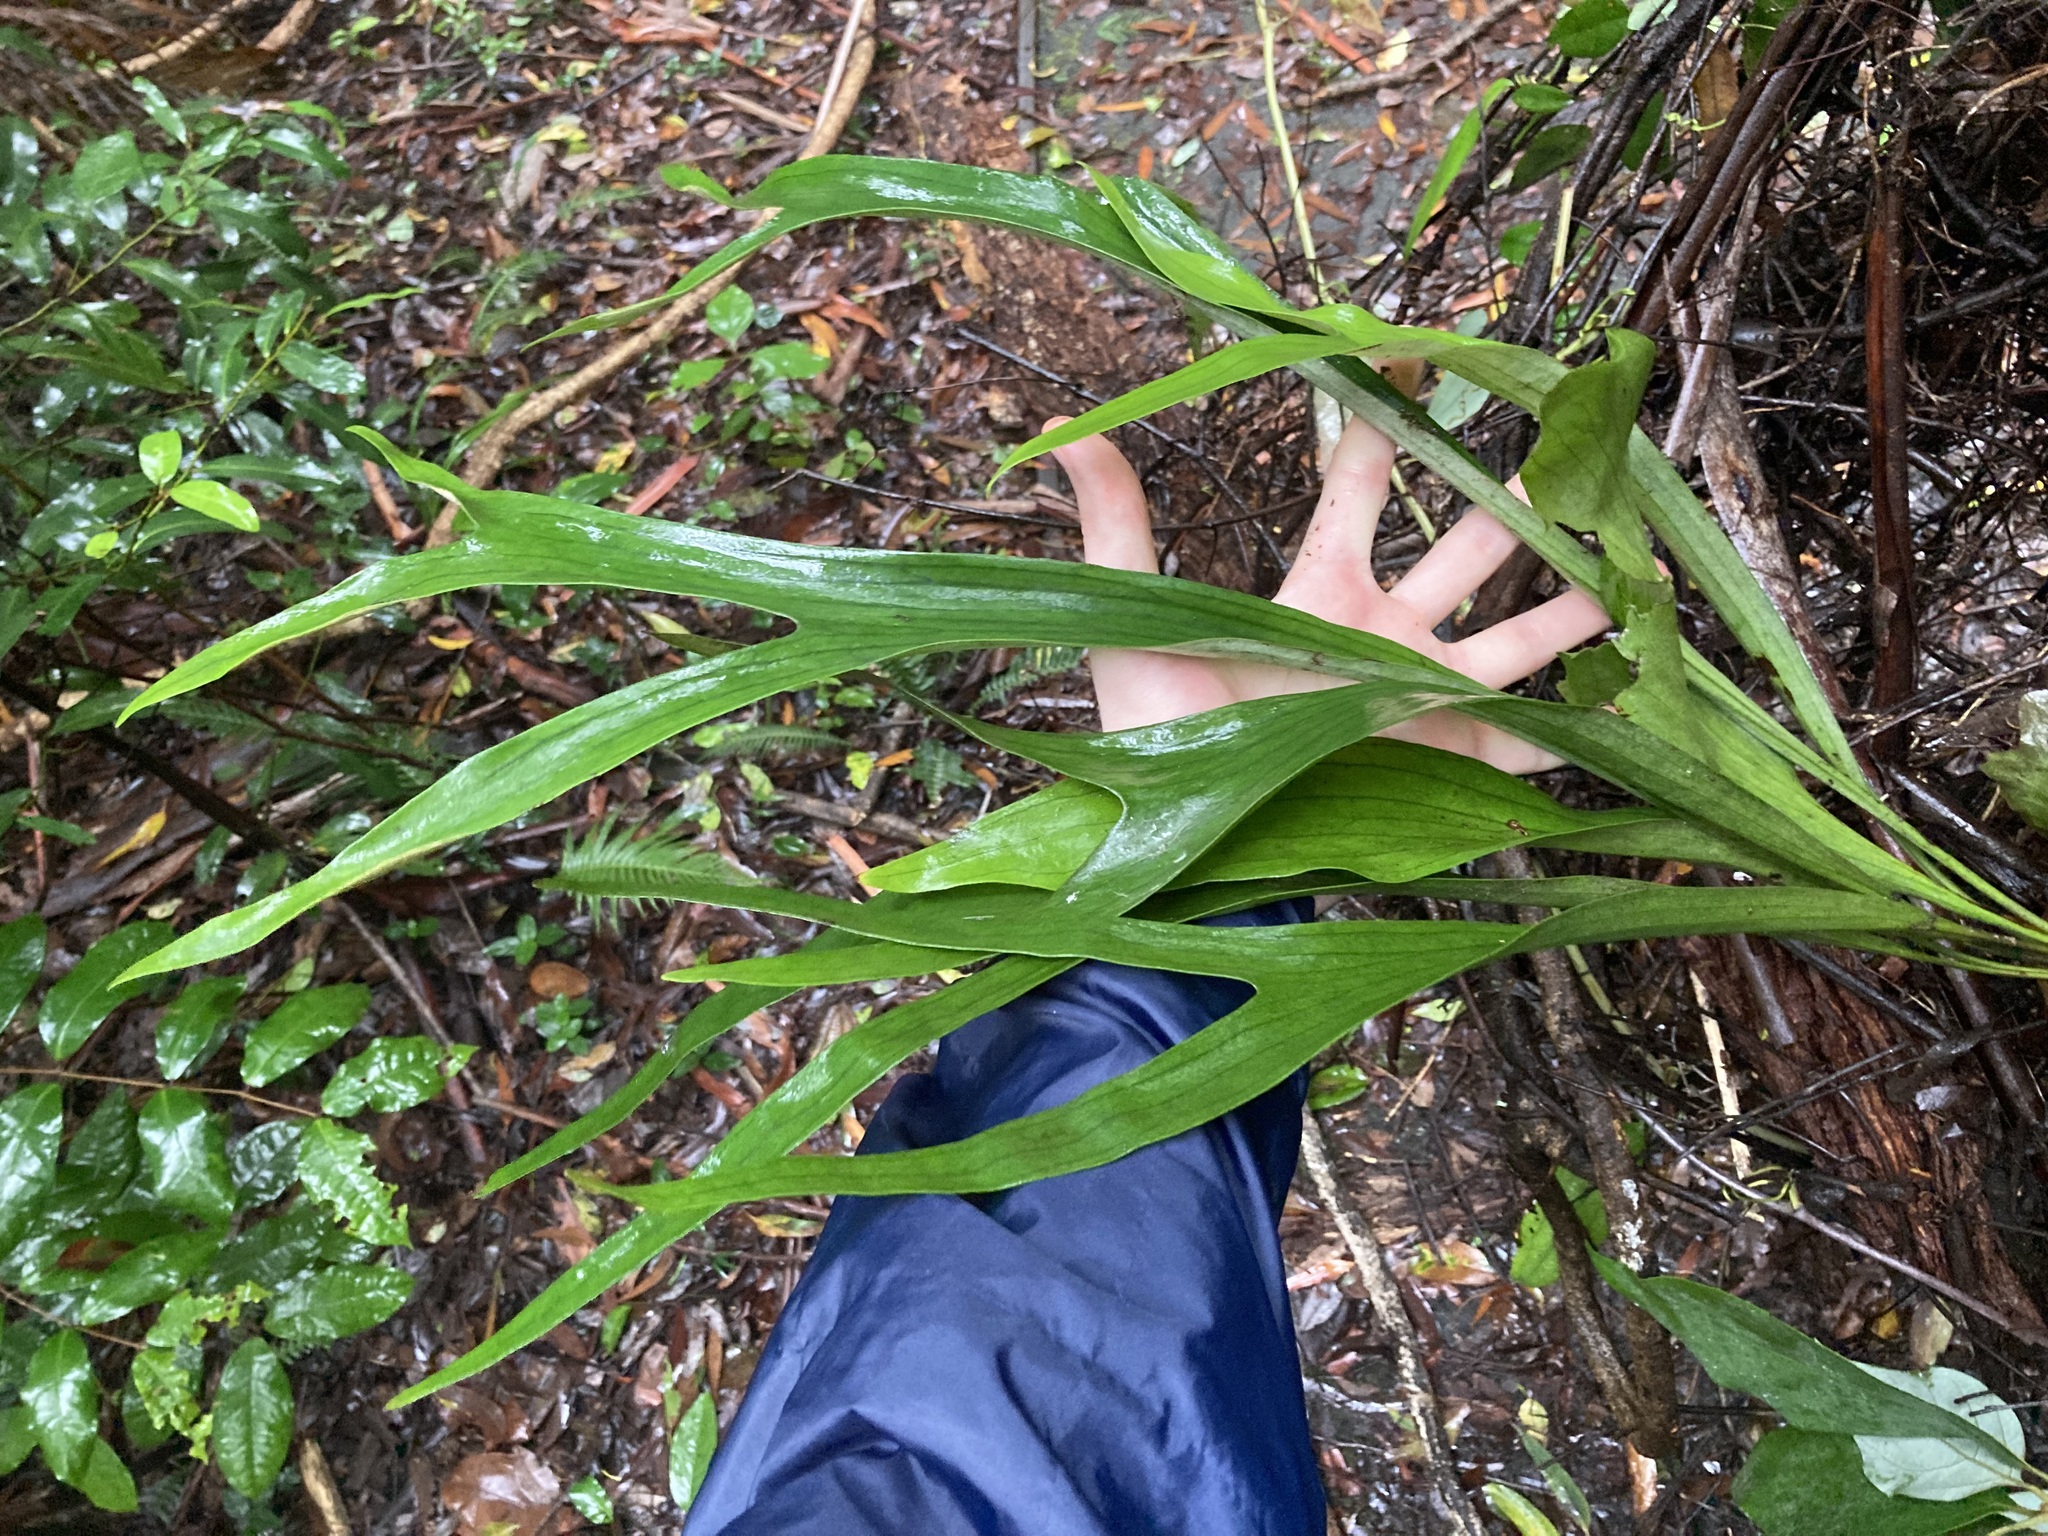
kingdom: Plantae
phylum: Tracheophyta
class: Polypodiopsida
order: Polypodiales
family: Polypodiaceae
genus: Platycerium
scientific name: Platycerium bifurcatum
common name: Elkhorn fern
